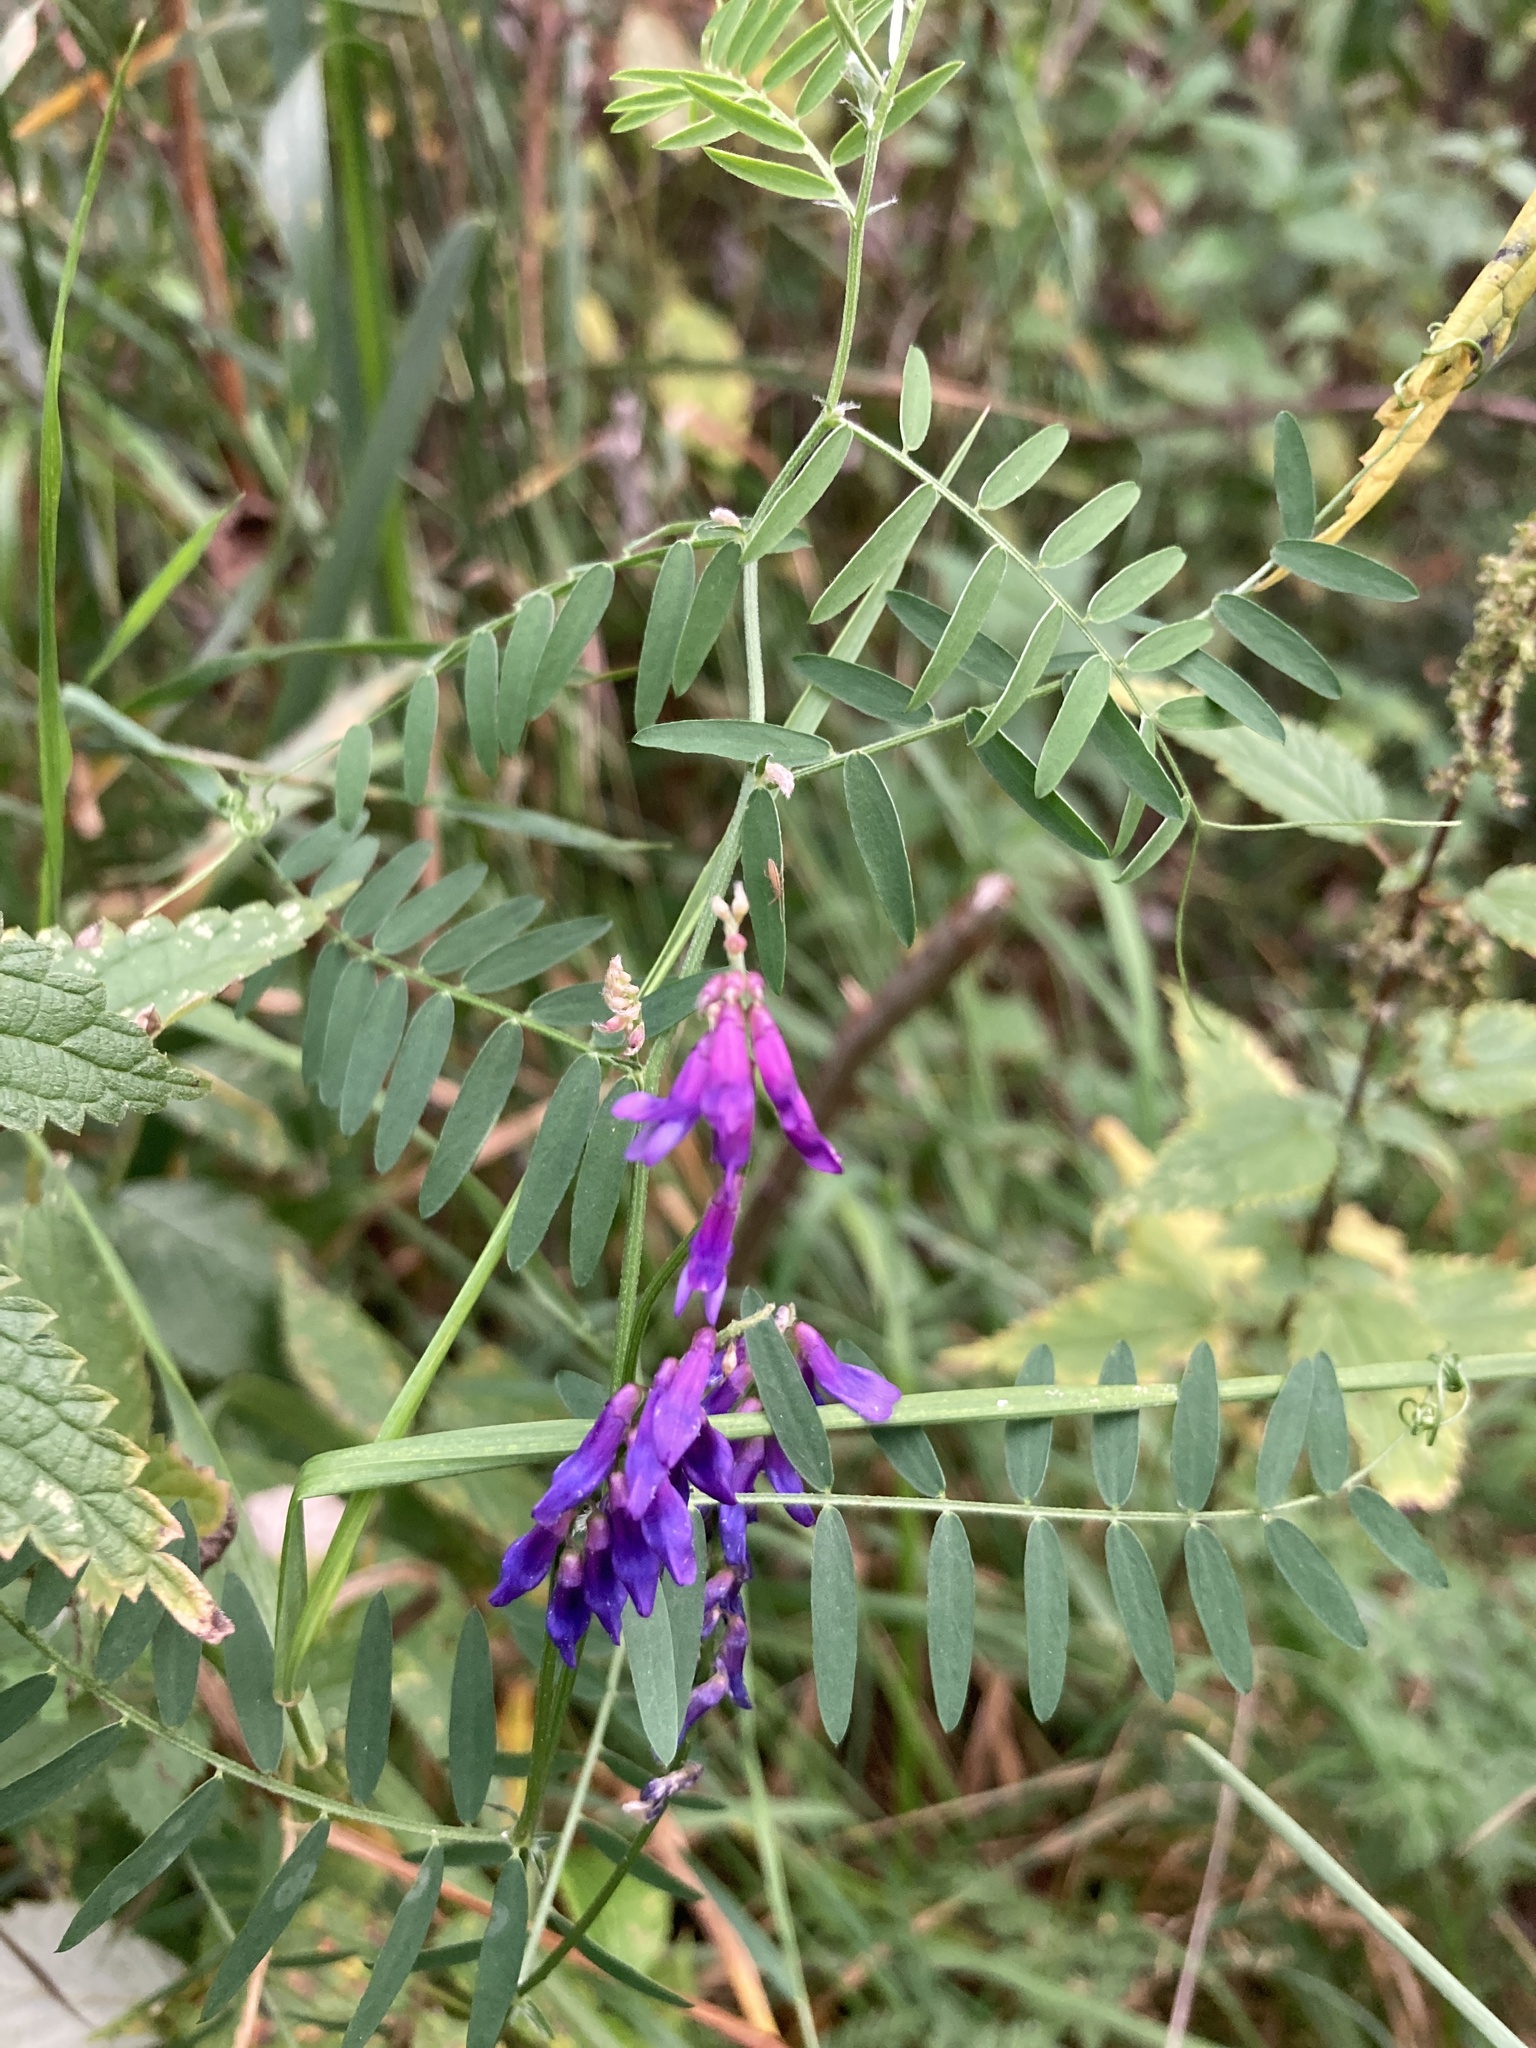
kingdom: Plantae
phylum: Tracheophyta
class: Magnoliopsida
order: Fabales
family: Fabaceae
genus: Vicia
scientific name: Vicia cracca
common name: Bird vetch
